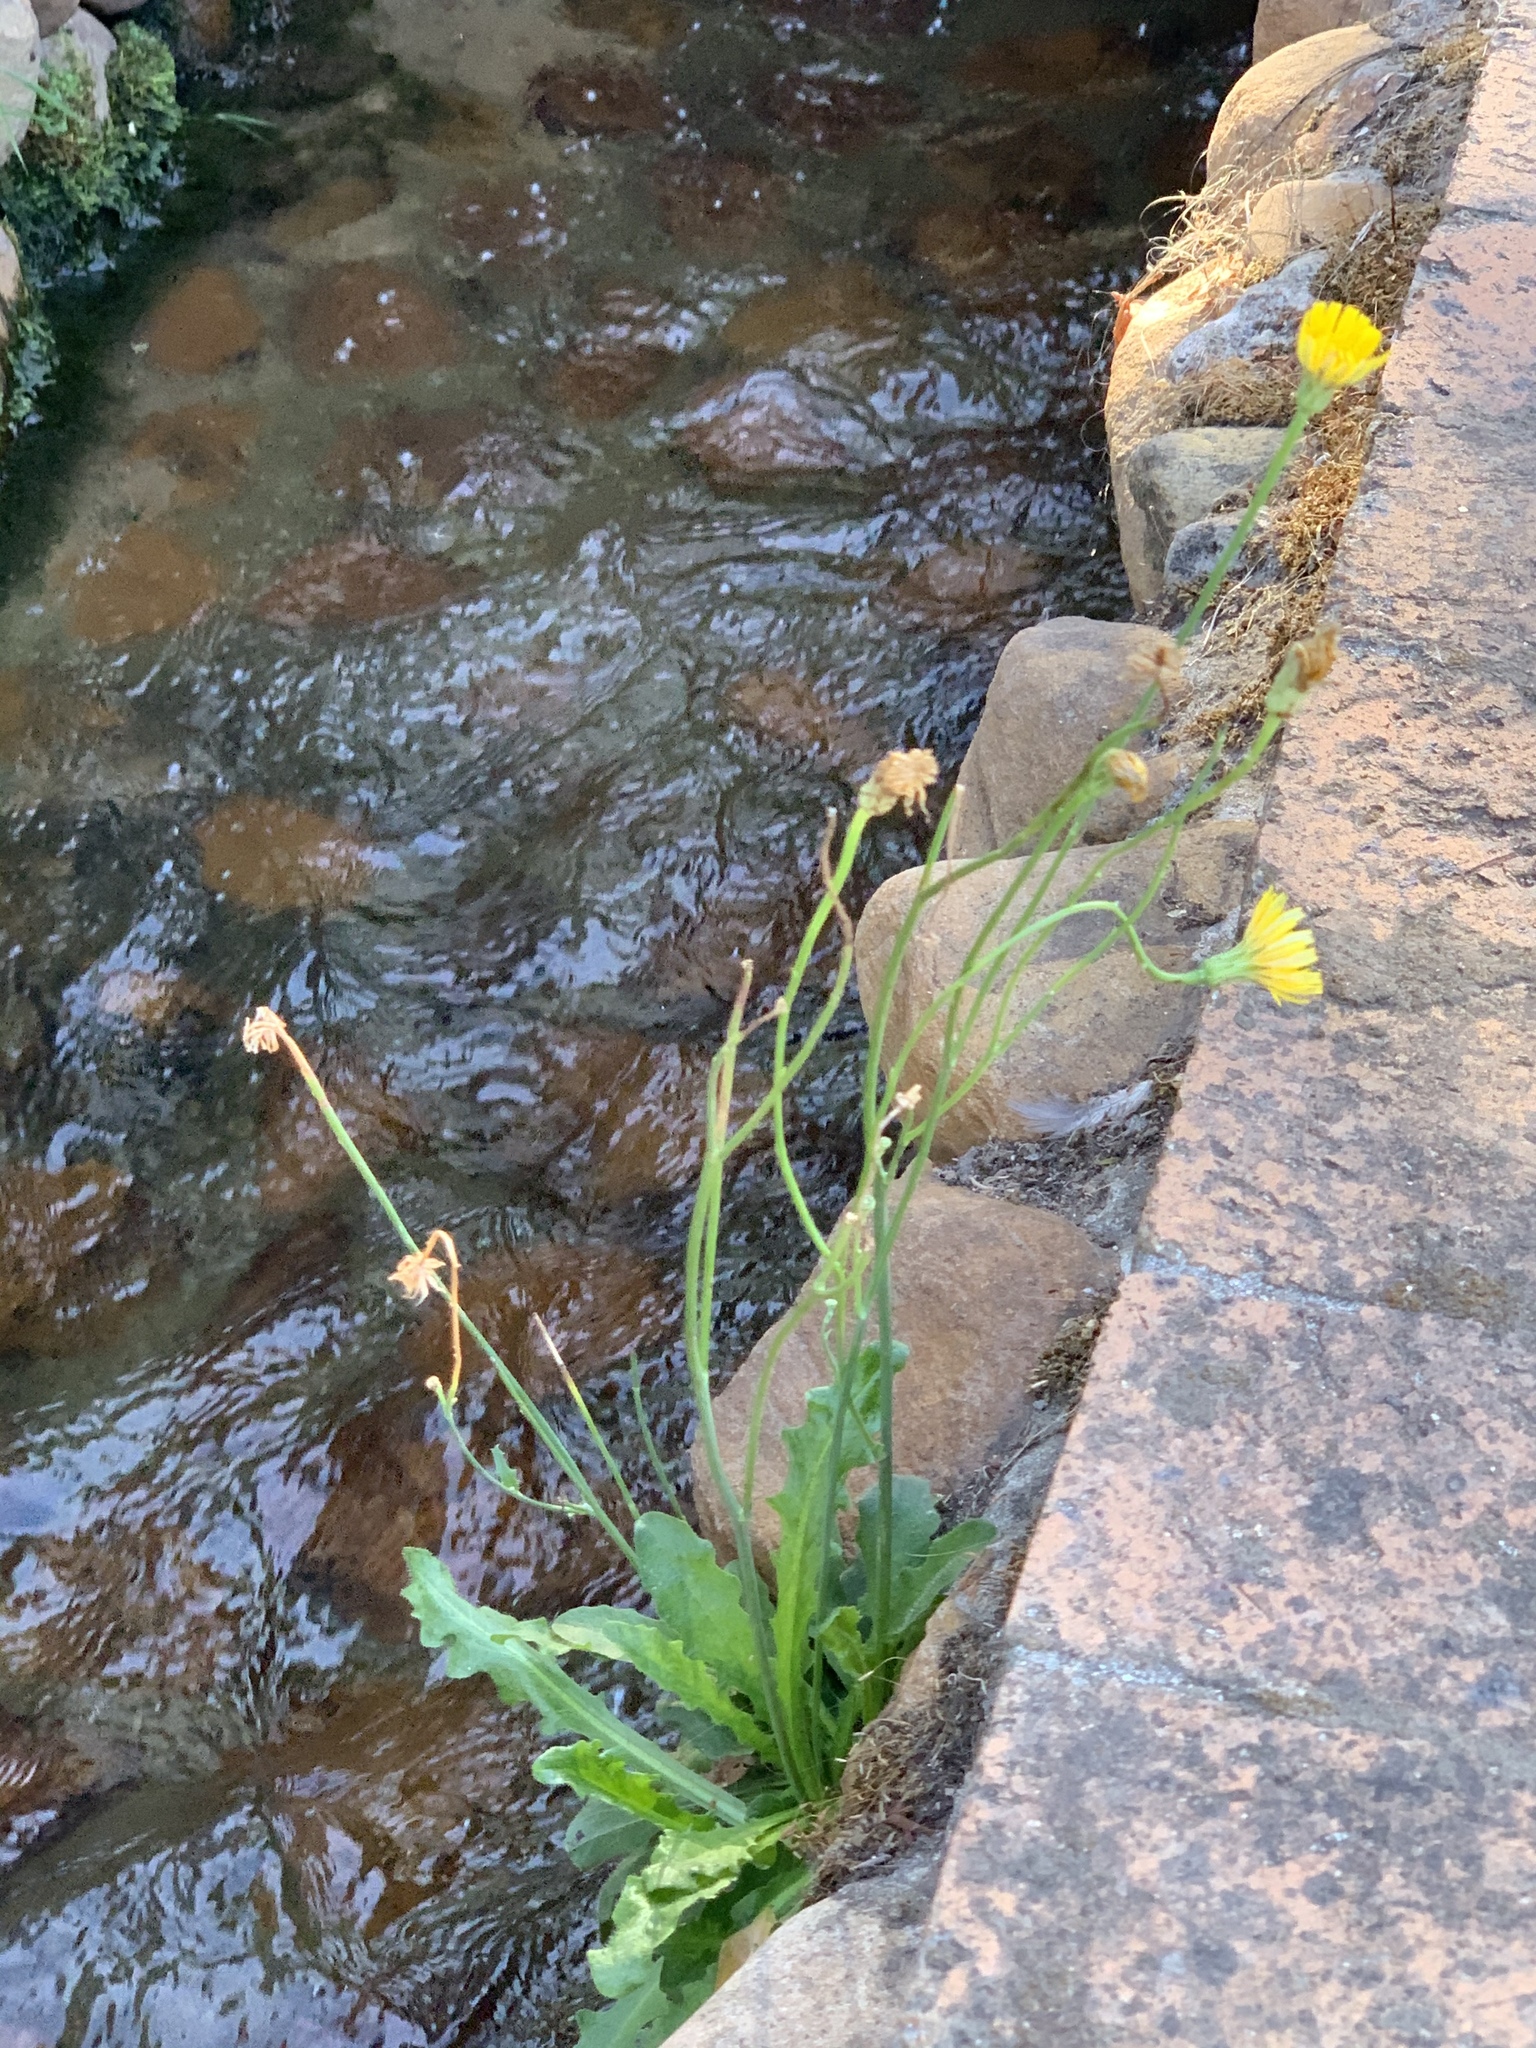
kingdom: Plantae
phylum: Tracheophyta
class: Magnoliopsida
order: Asterales
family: Asteraceae
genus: Hypochaeris
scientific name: Hypochaeris radicata
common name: Flatweed
